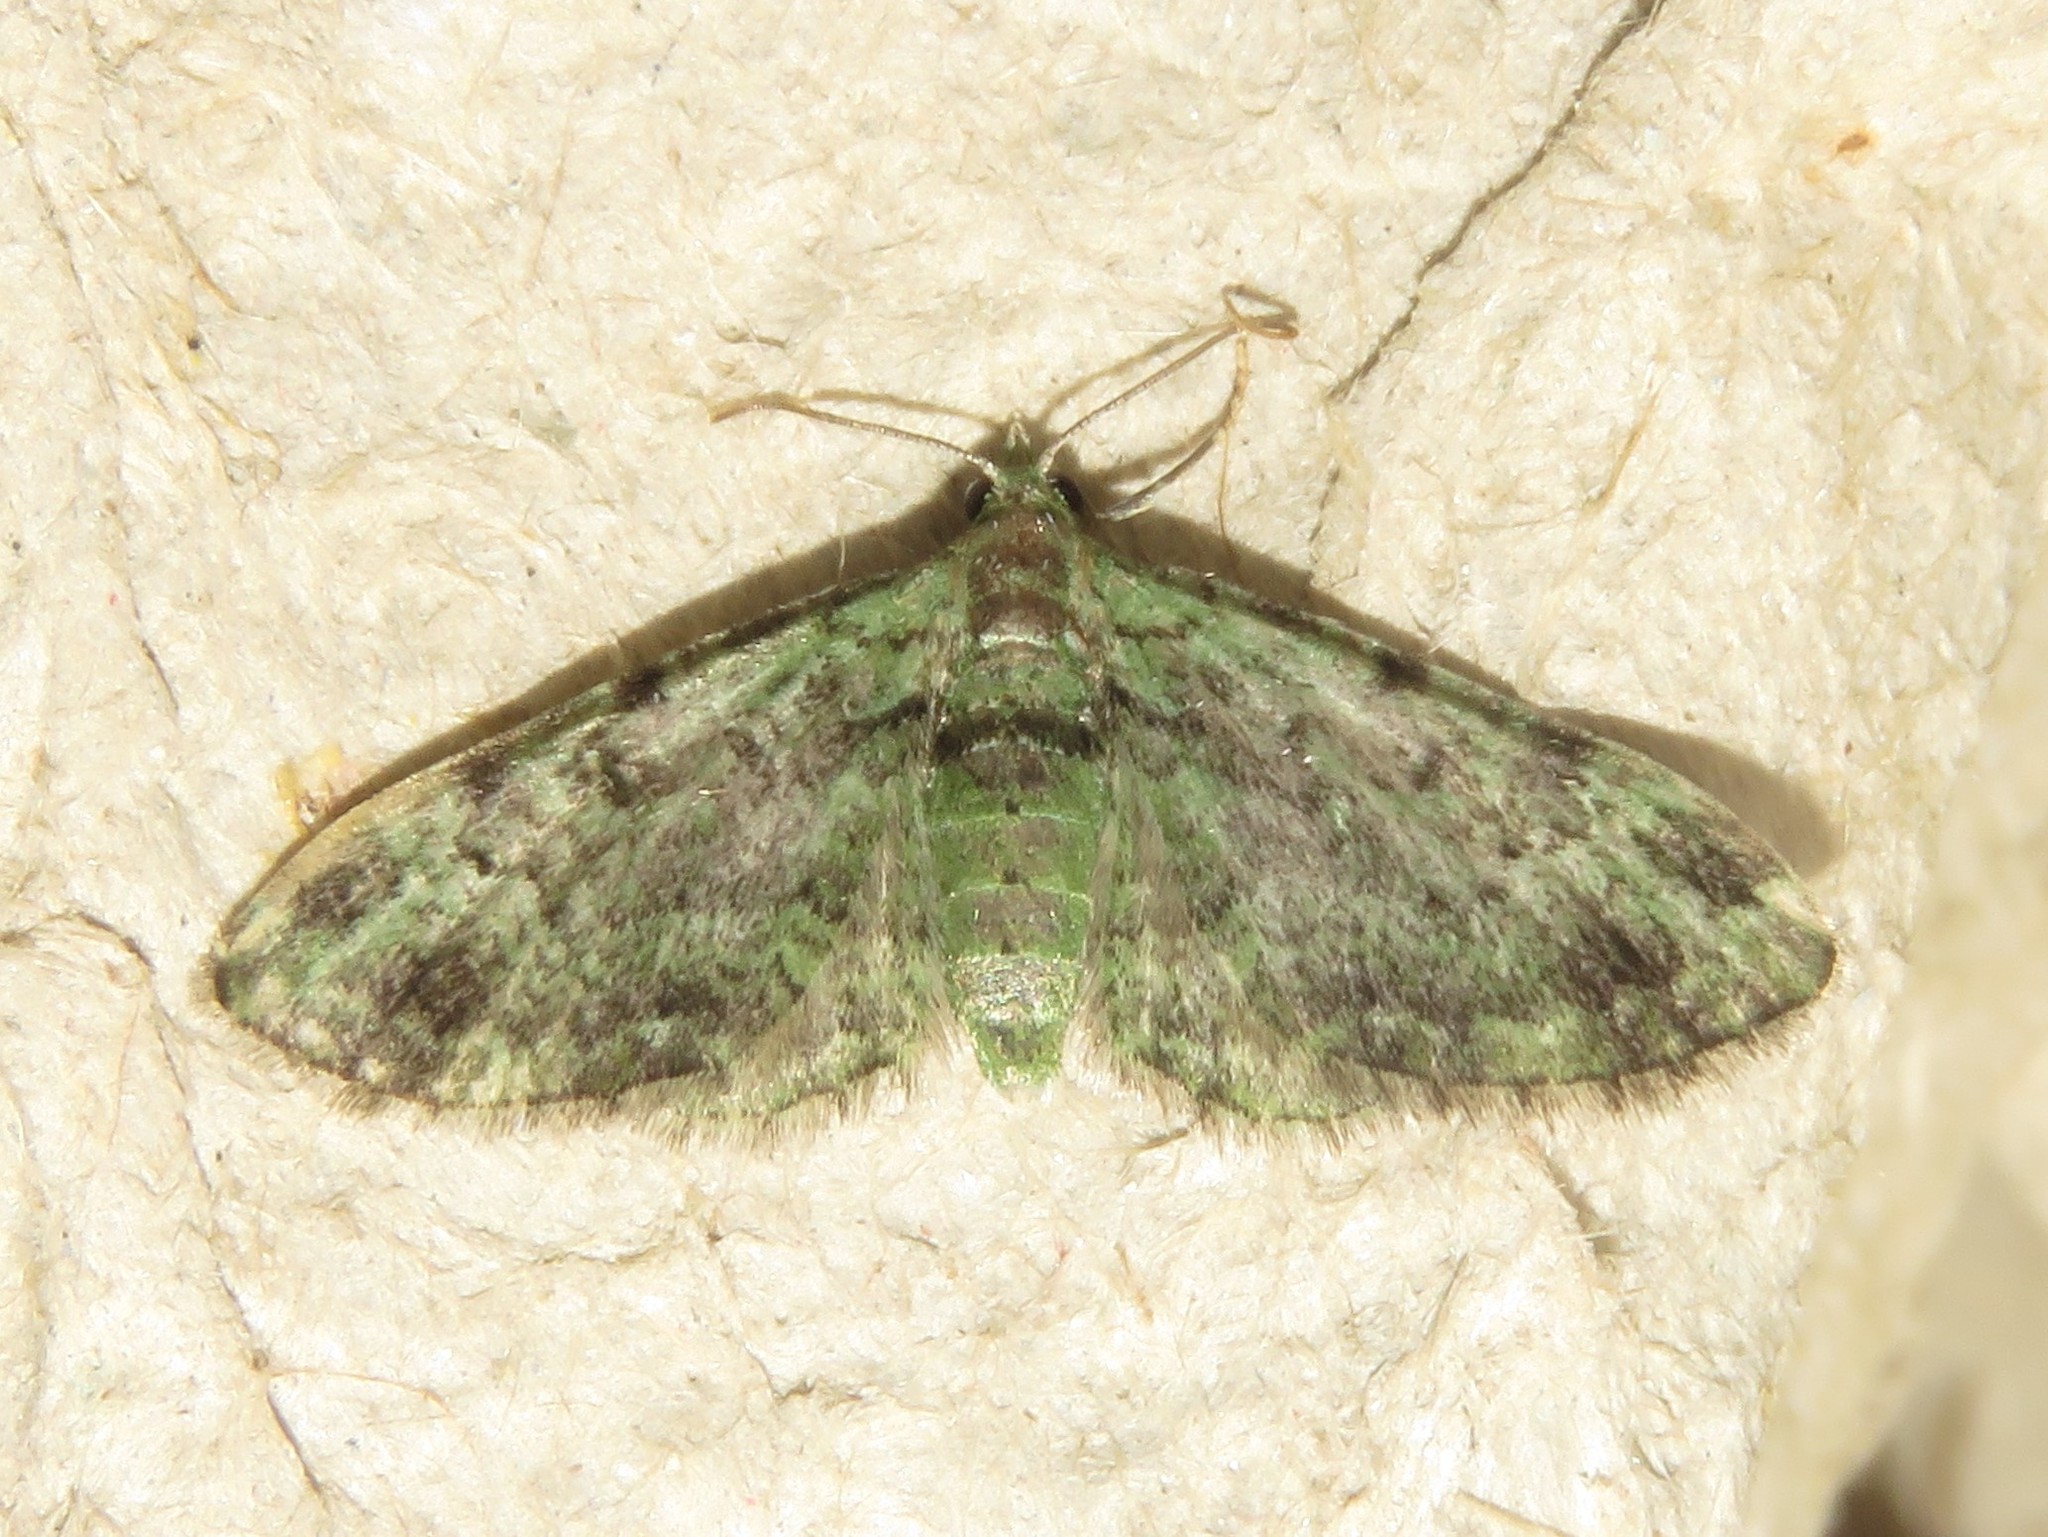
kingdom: Animalia
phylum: Arthropoda
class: Insecta
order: Lepidoptera
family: Geometridae
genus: Pasiphila
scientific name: Pasiphila rectangulata
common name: Green pug
